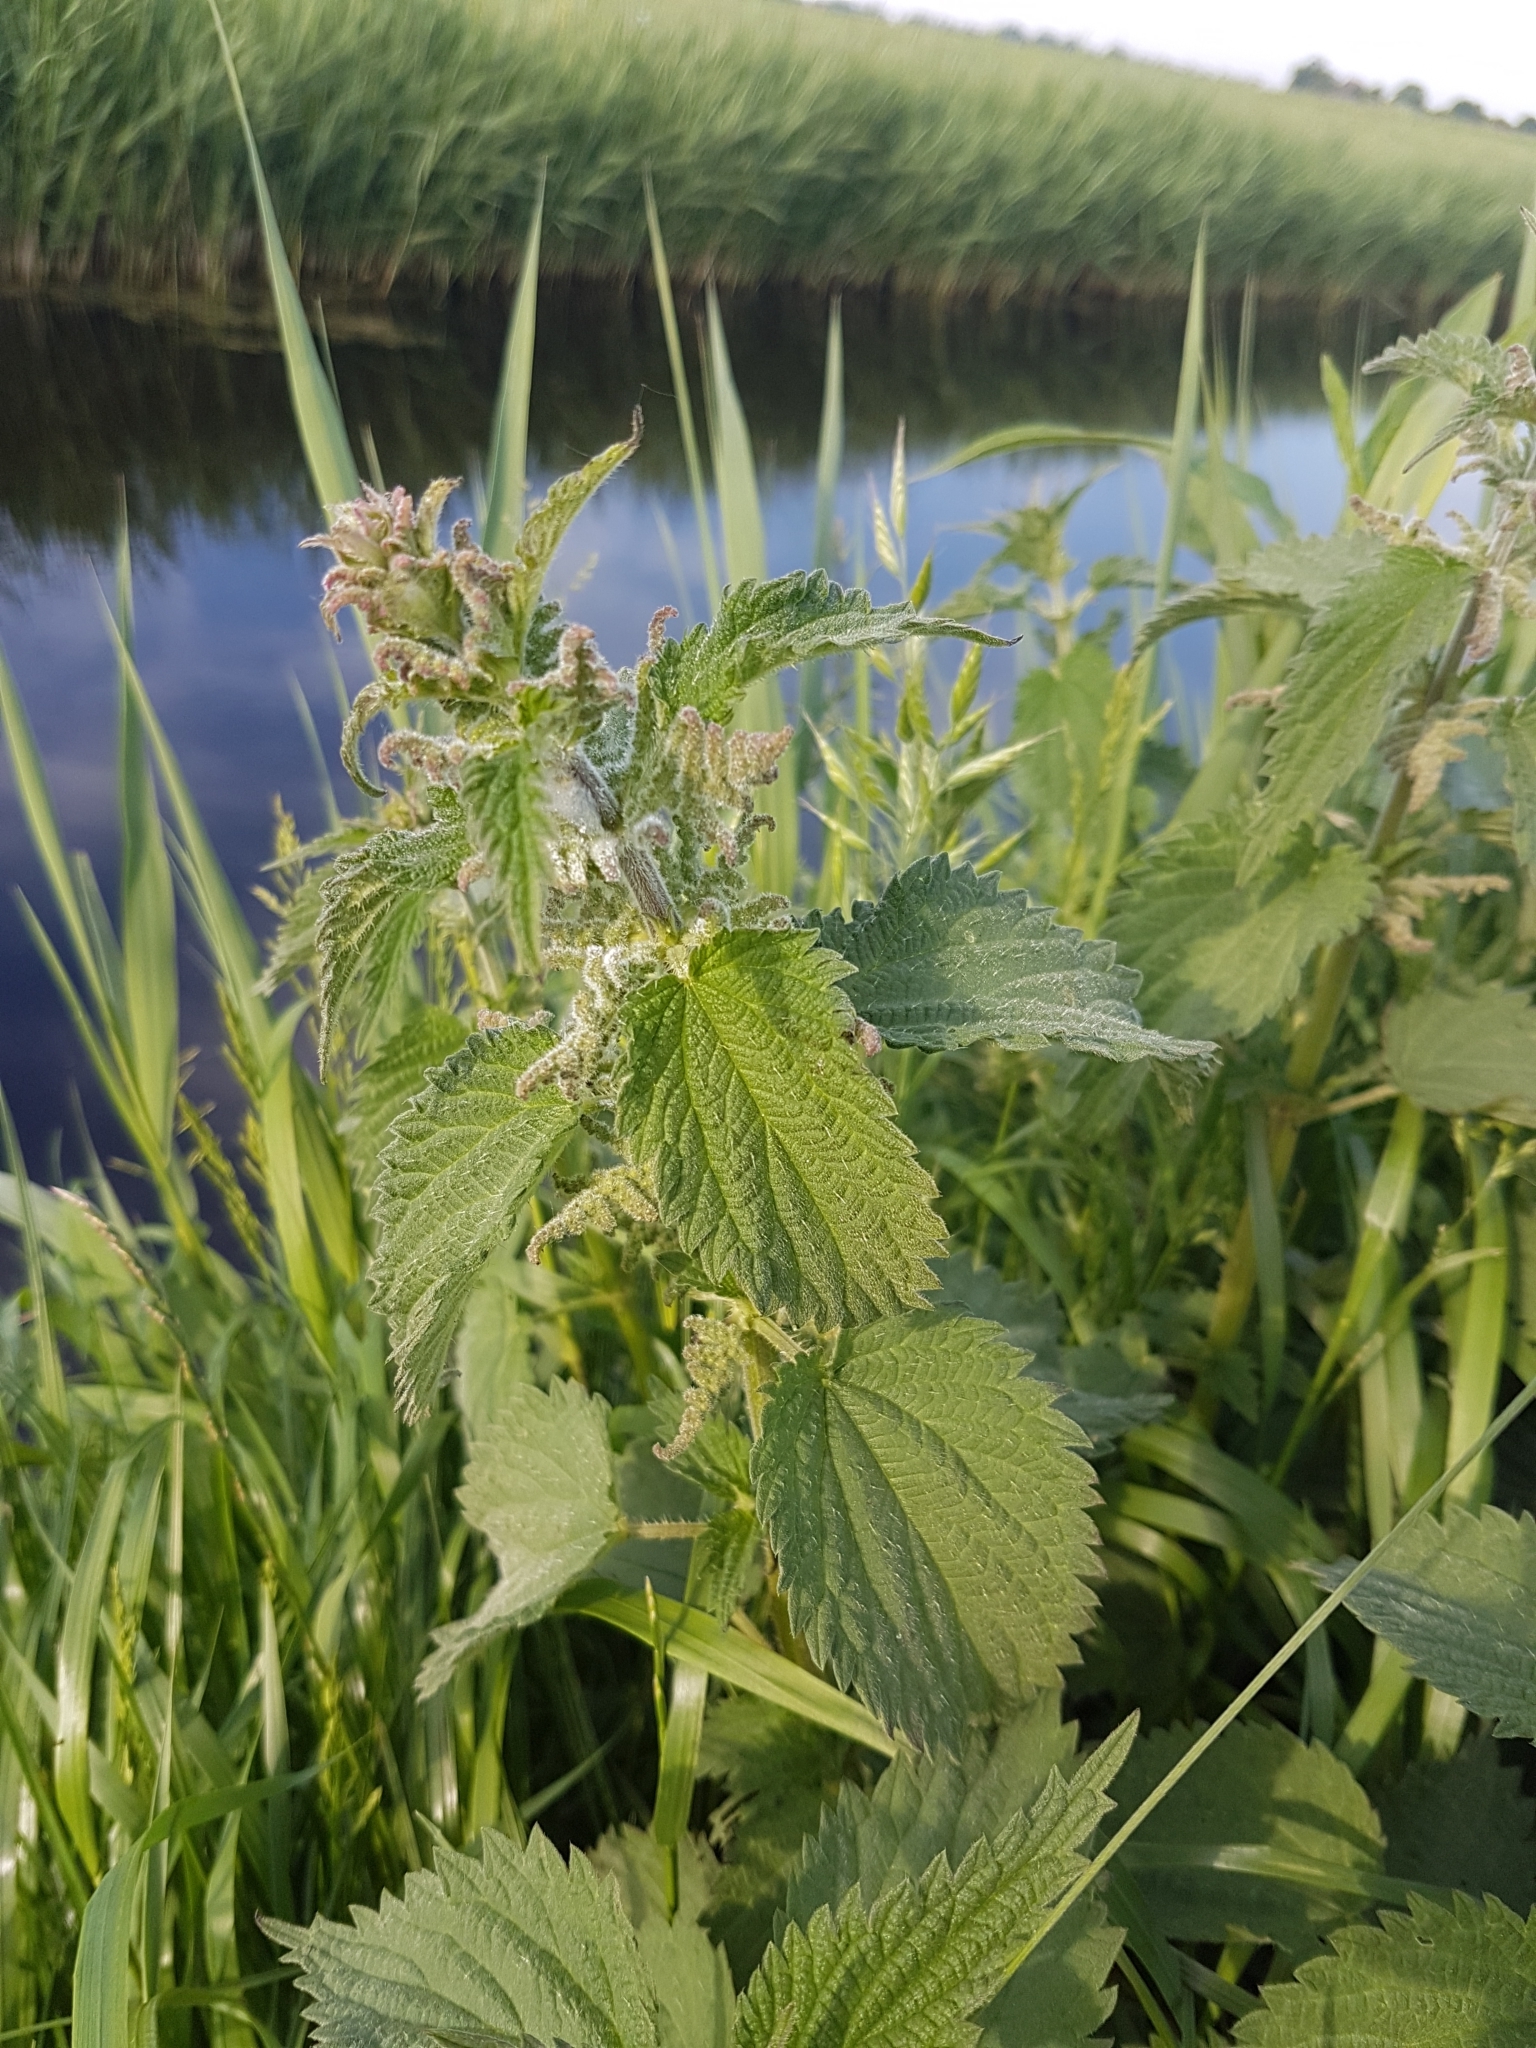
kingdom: Plantae
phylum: Tracheophyta
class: Magnoliopsida
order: Rosales
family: Urticaceae
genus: Urtica
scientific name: Urtica dioica
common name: Common nettle
